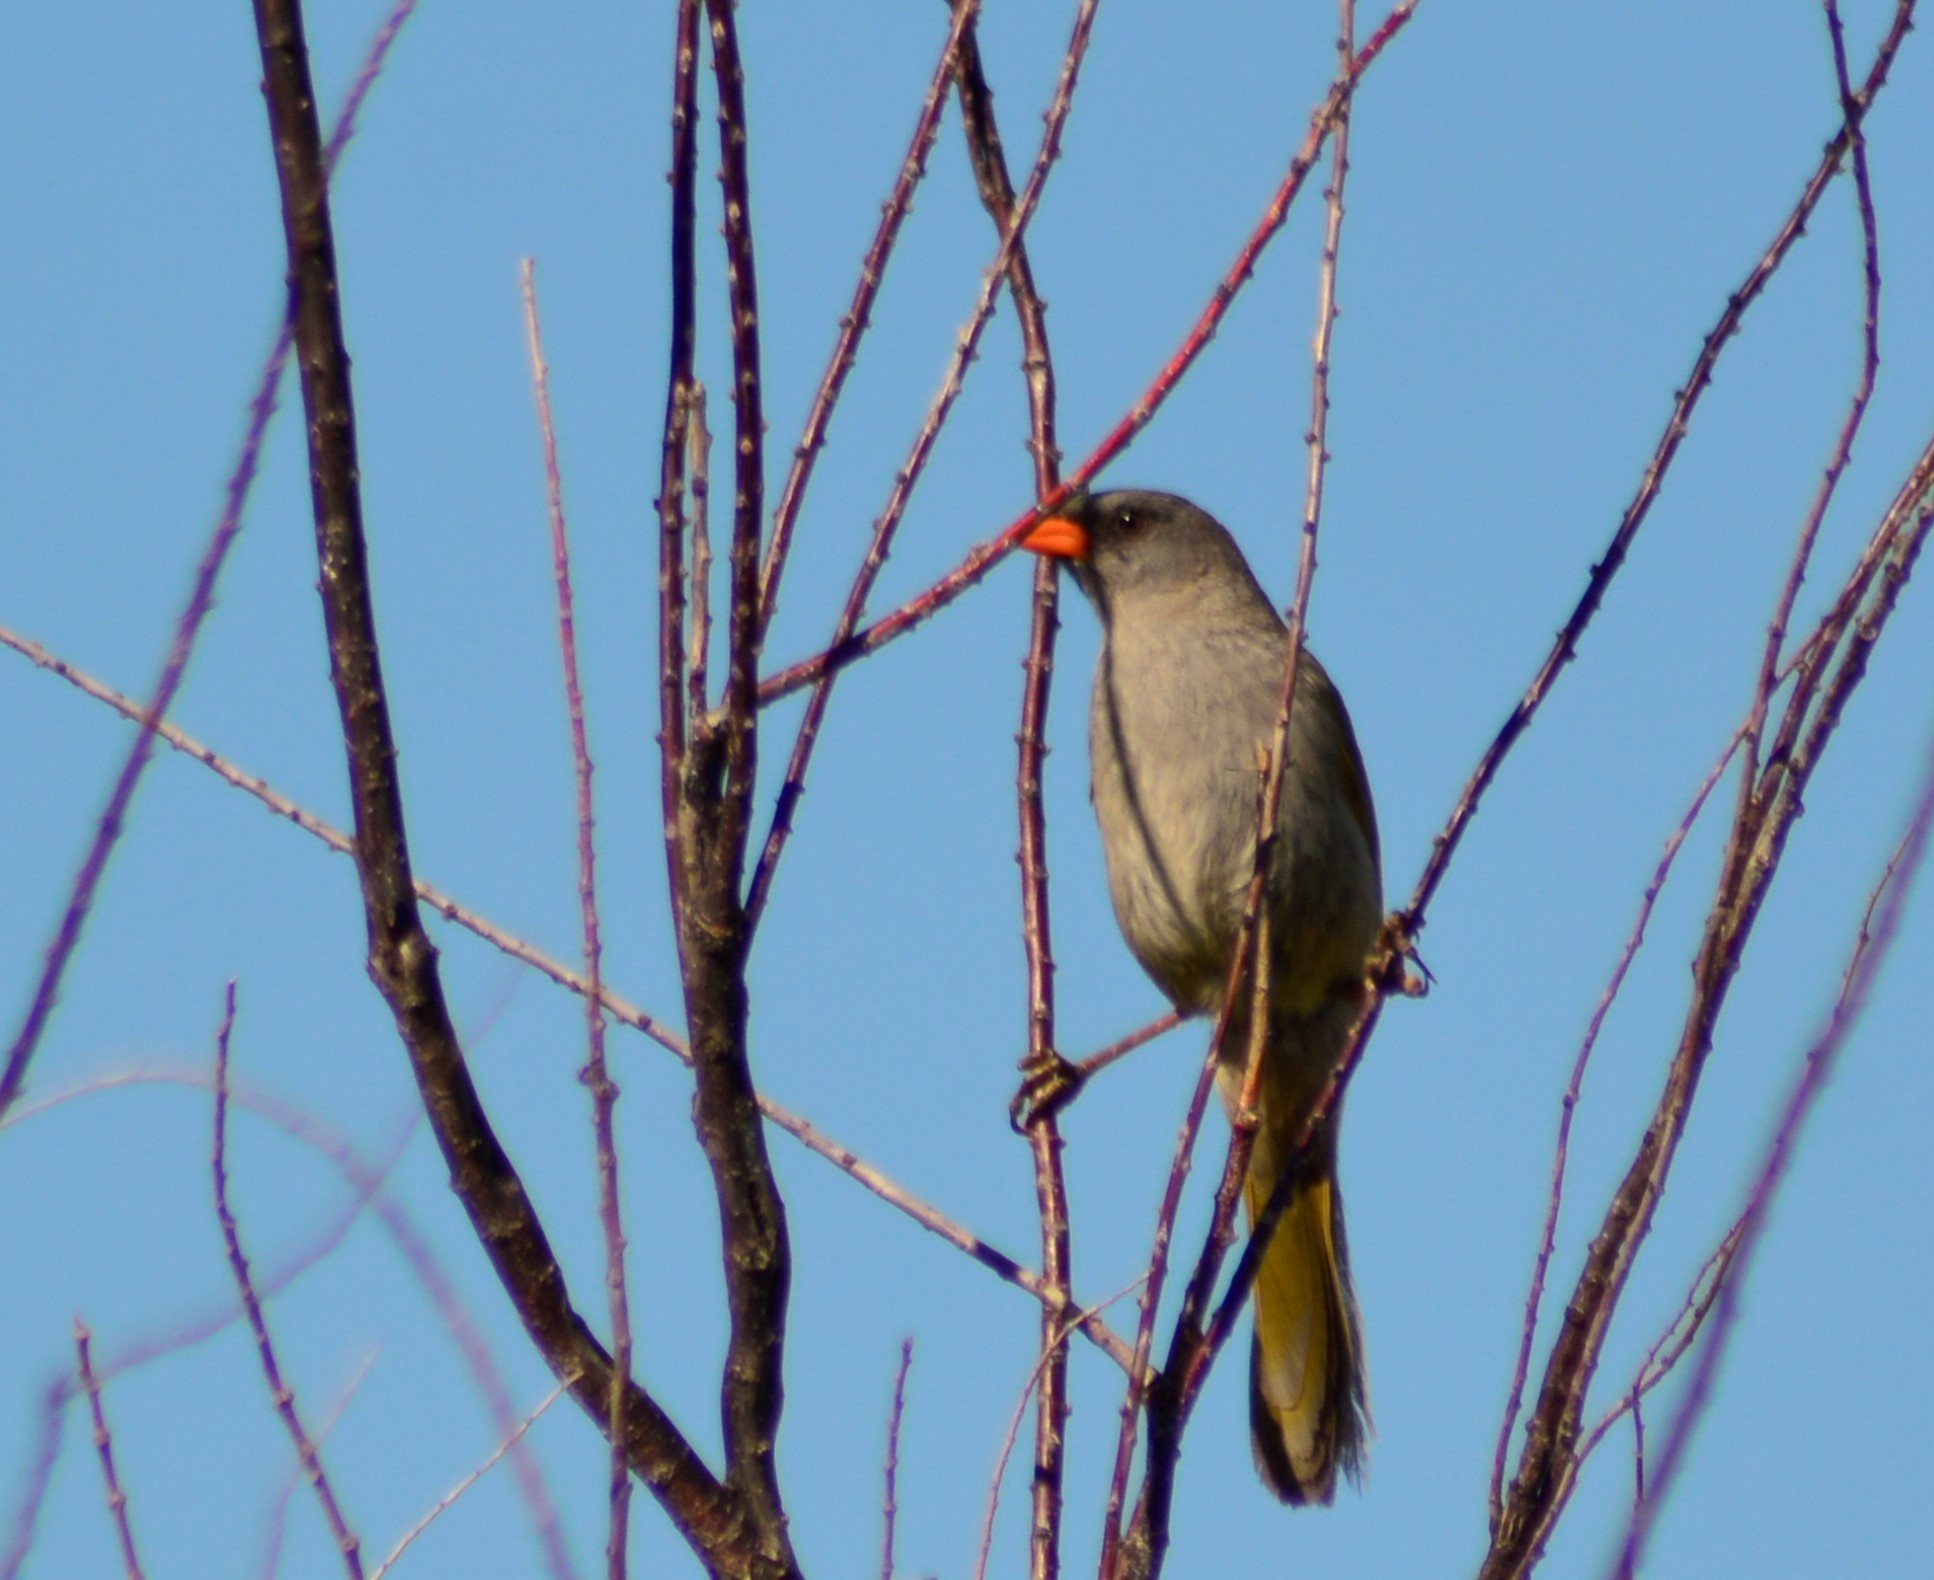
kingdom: Animalia
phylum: Chordata
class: Aves
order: Passeriformes
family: Thraupidae
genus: Embernagra
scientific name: Embernagra platensis
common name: Pampa finch
